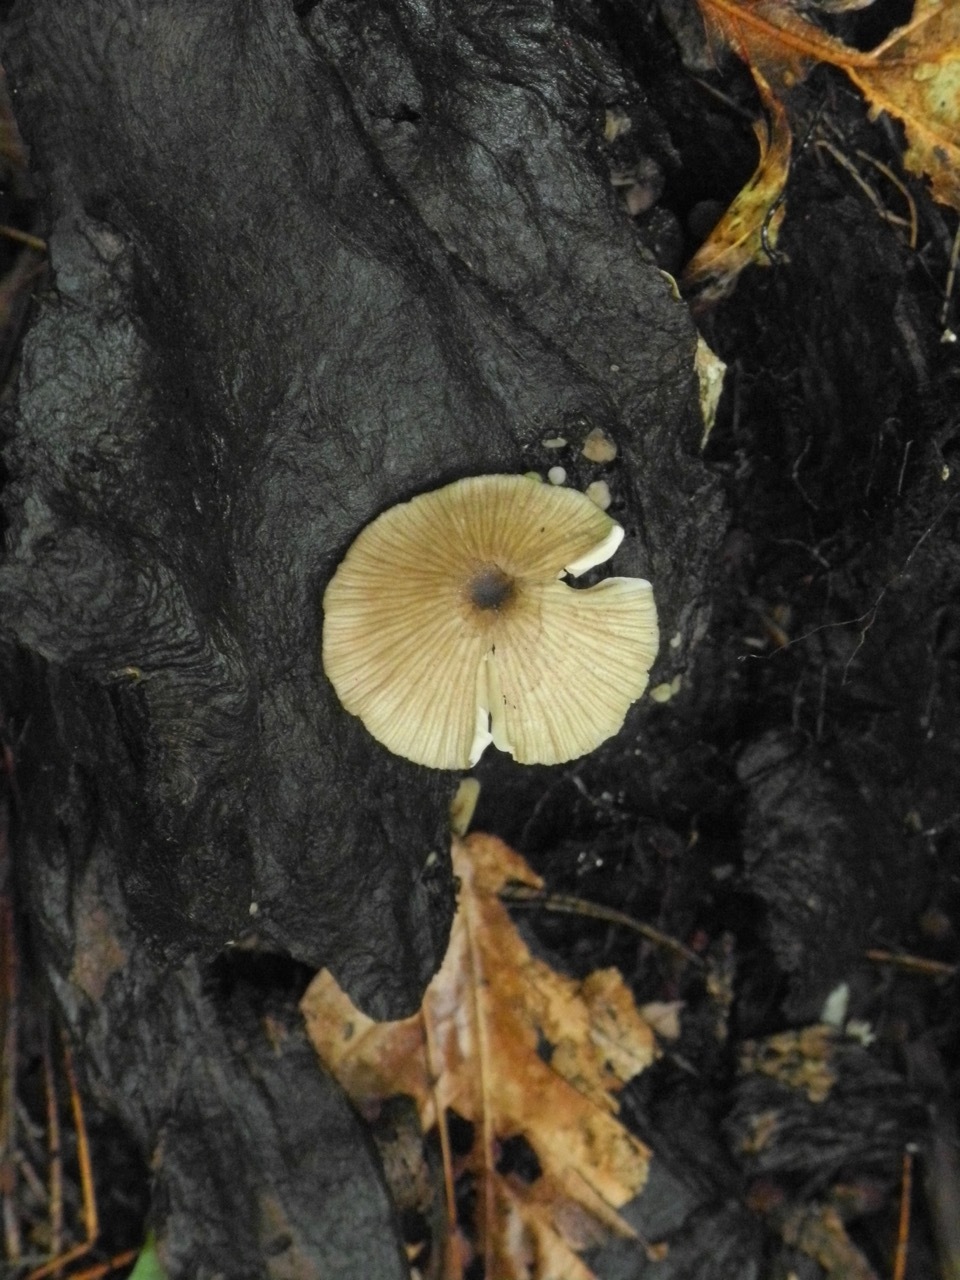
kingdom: Fungi
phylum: Basidiomycota
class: Agaricomycetes
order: Agaricales
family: Mycenaceae
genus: Mycena
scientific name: Mycena galericulata
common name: Bonnet mycena
